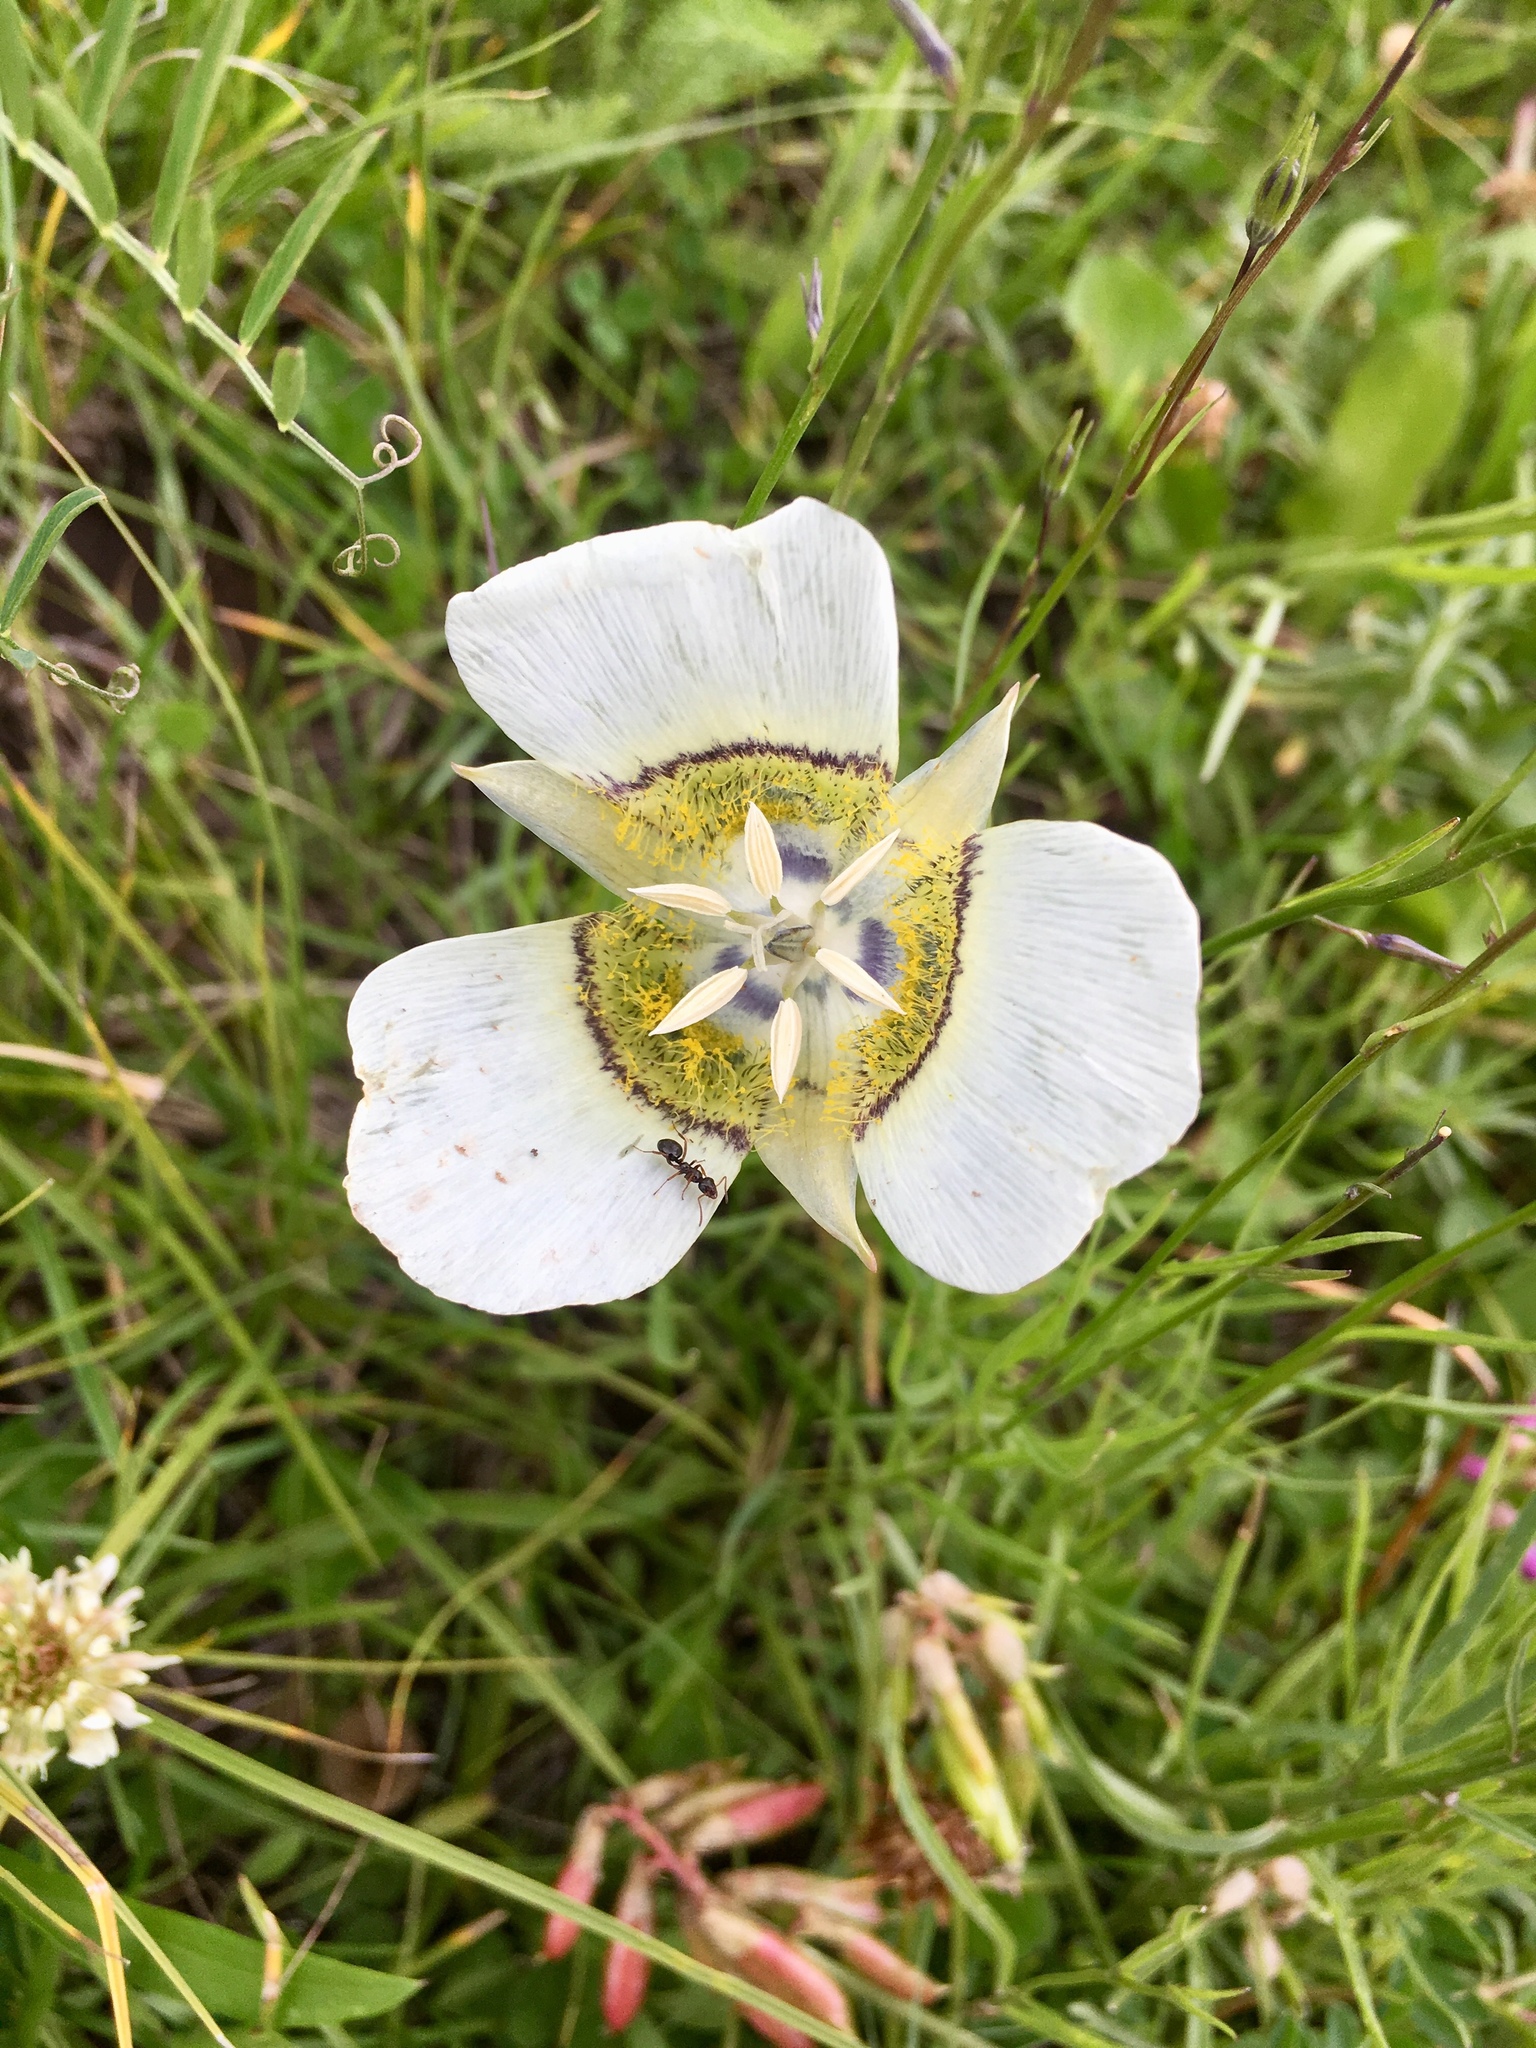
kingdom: Plantae
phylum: Tracheophyta
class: Liliopsida
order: Liliales
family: Liliaceae
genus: Calochortus
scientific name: Calochortus gunnisonii
